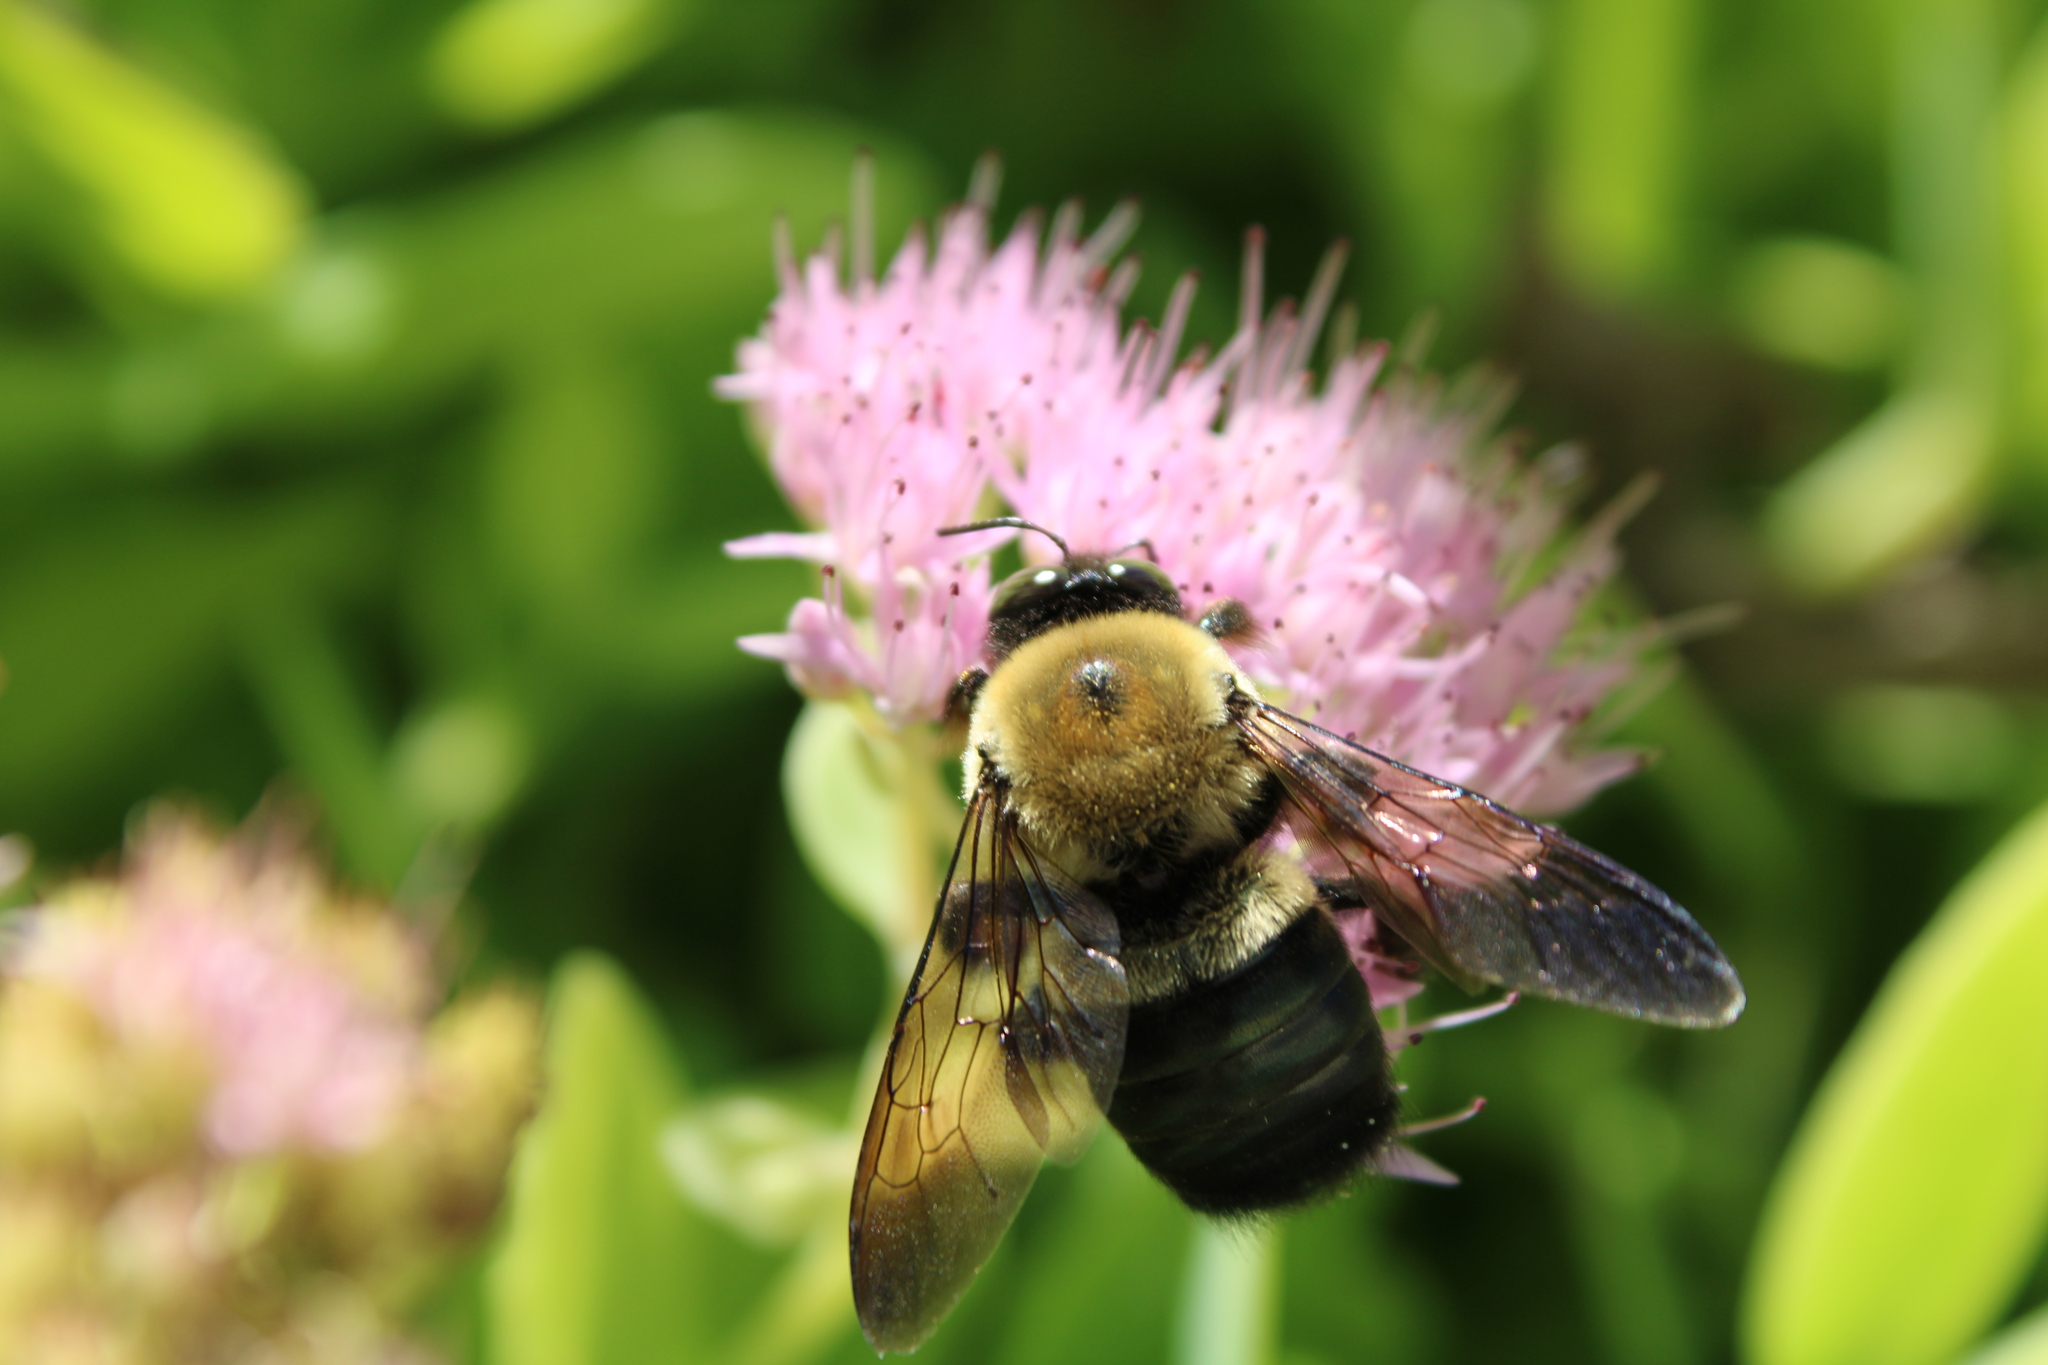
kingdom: Animalia
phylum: Arthropoda
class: Insecta
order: Hymenoptera
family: Apidae
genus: Xylocopa
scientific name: Xylocopa virginica
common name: Carpenter bee
